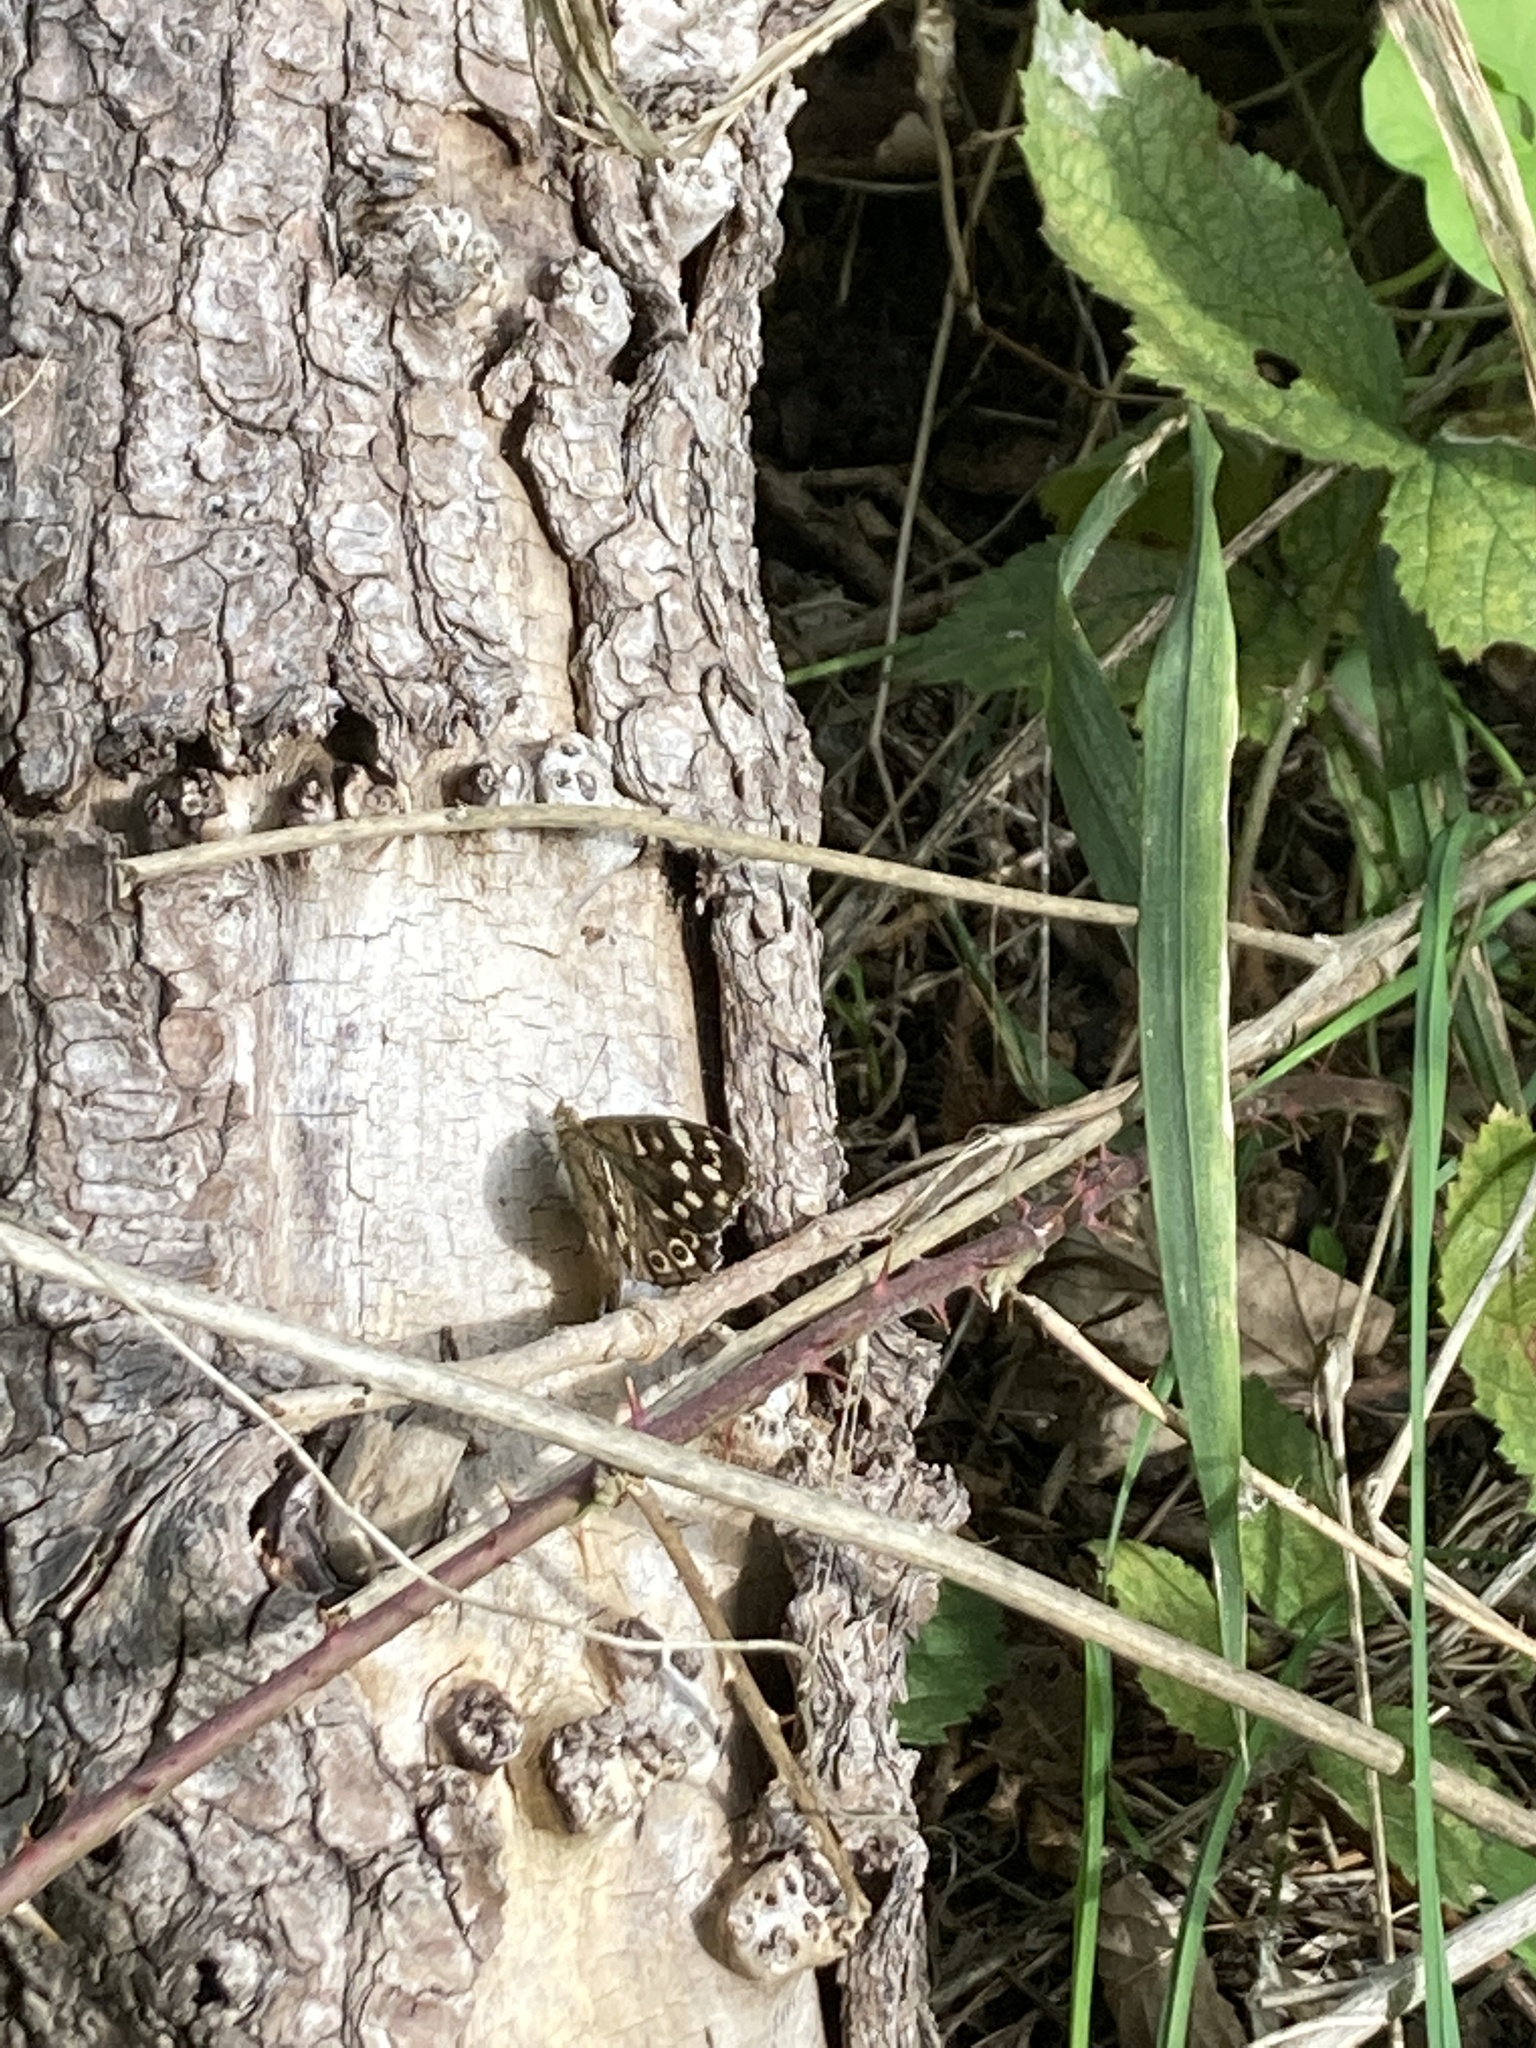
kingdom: Animalia
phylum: Arthropoda
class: Insecta
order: Lepidoptera
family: Nymphalidae
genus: Pararge
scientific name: Pararge aegeria
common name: Speckled wood
